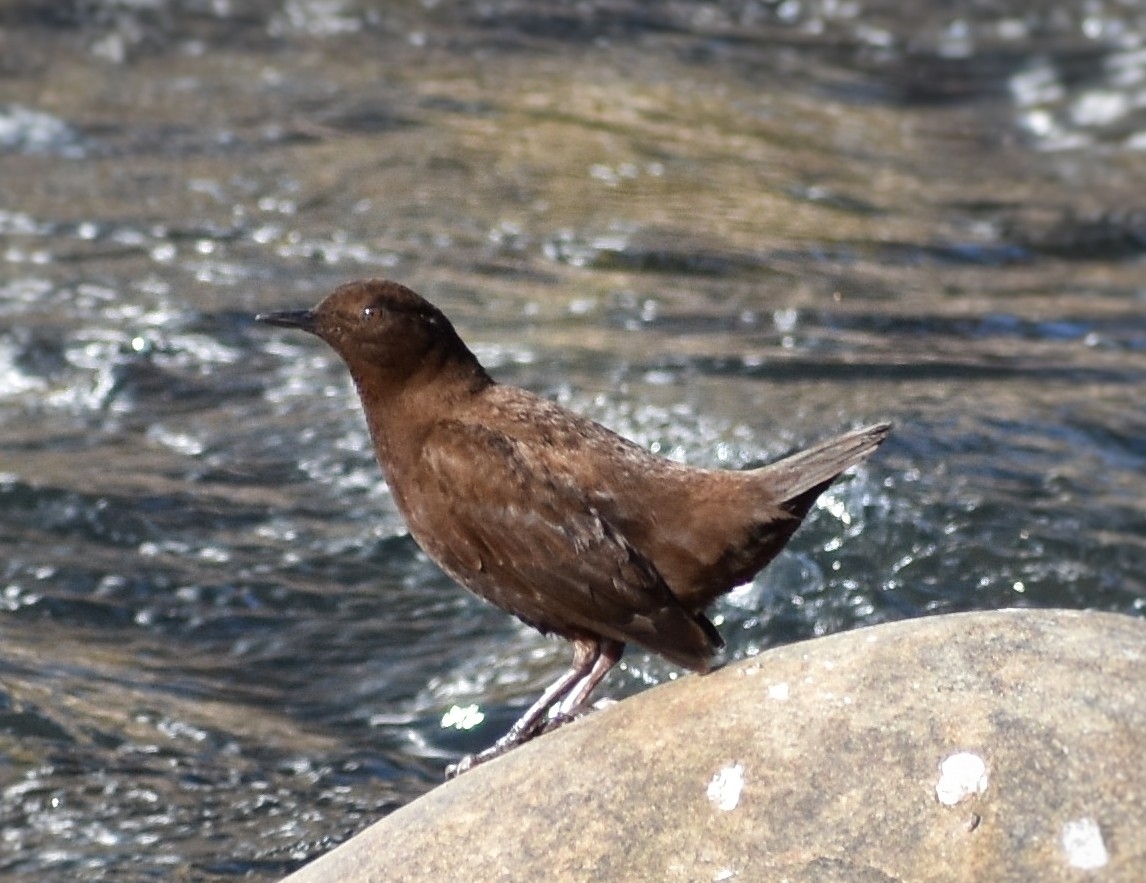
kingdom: Animalia
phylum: Chordata
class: Aves
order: Passeriformes
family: Cinclidae
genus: Cinclus
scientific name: Cinclus pallasii
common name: Brown dipper
